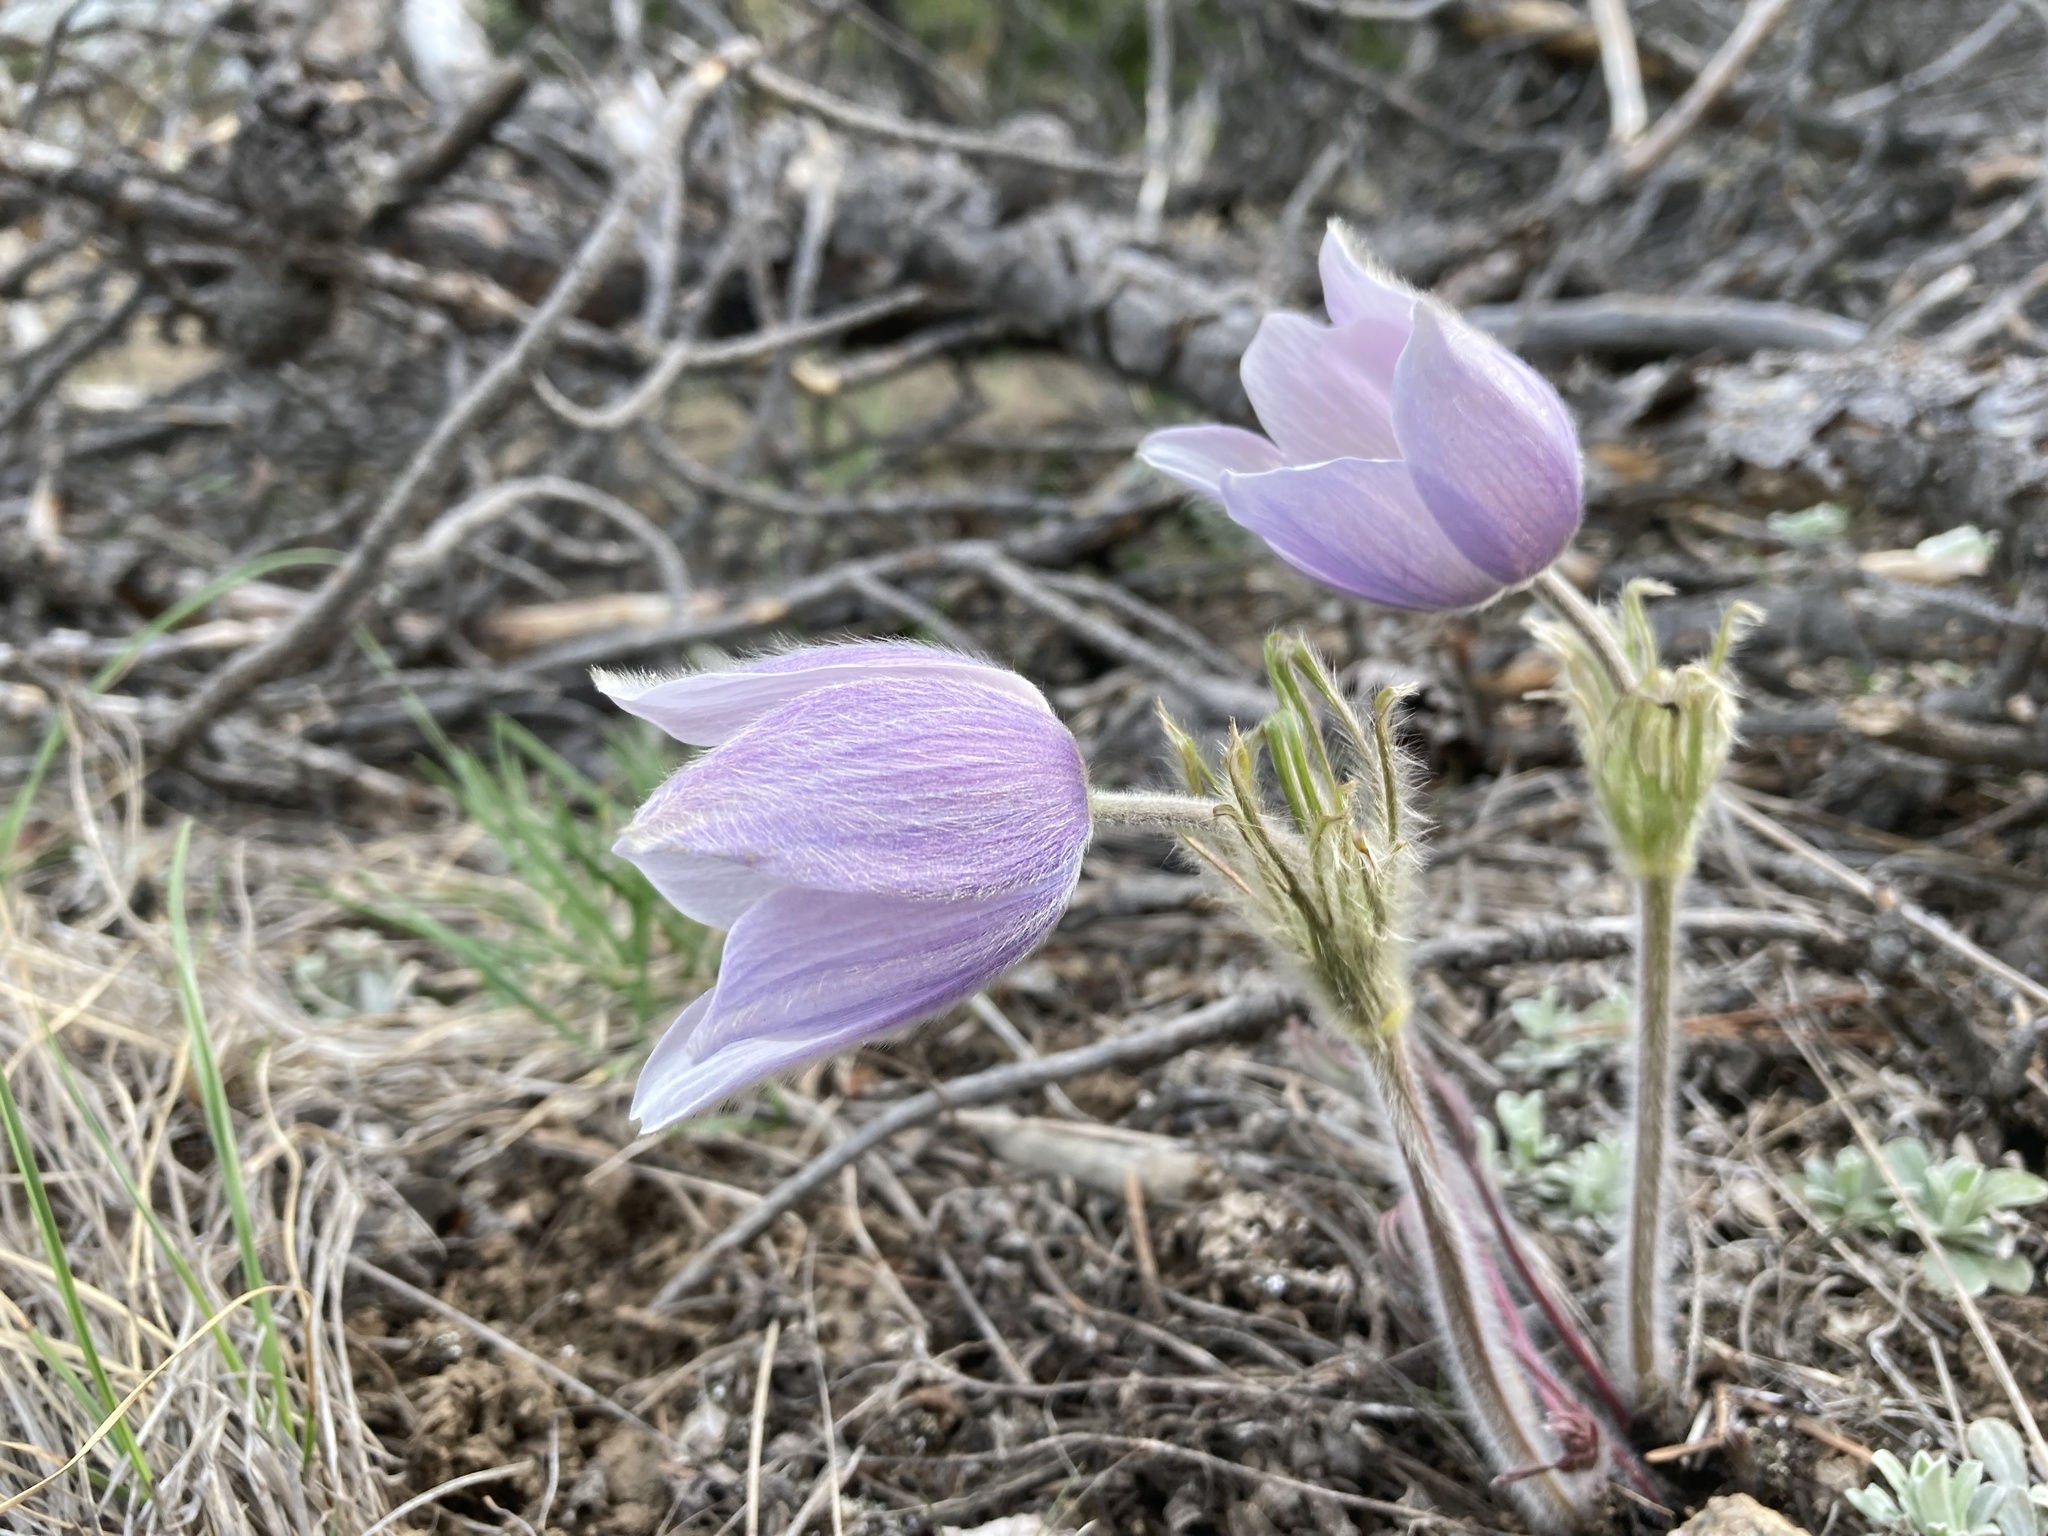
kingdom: Plantae
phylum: Tracheophyta
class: Magnoliopsida
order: Ranunculales
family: Ranunculaceae
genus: Pulsatilla
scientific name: Pulsatilla nuttalliana
